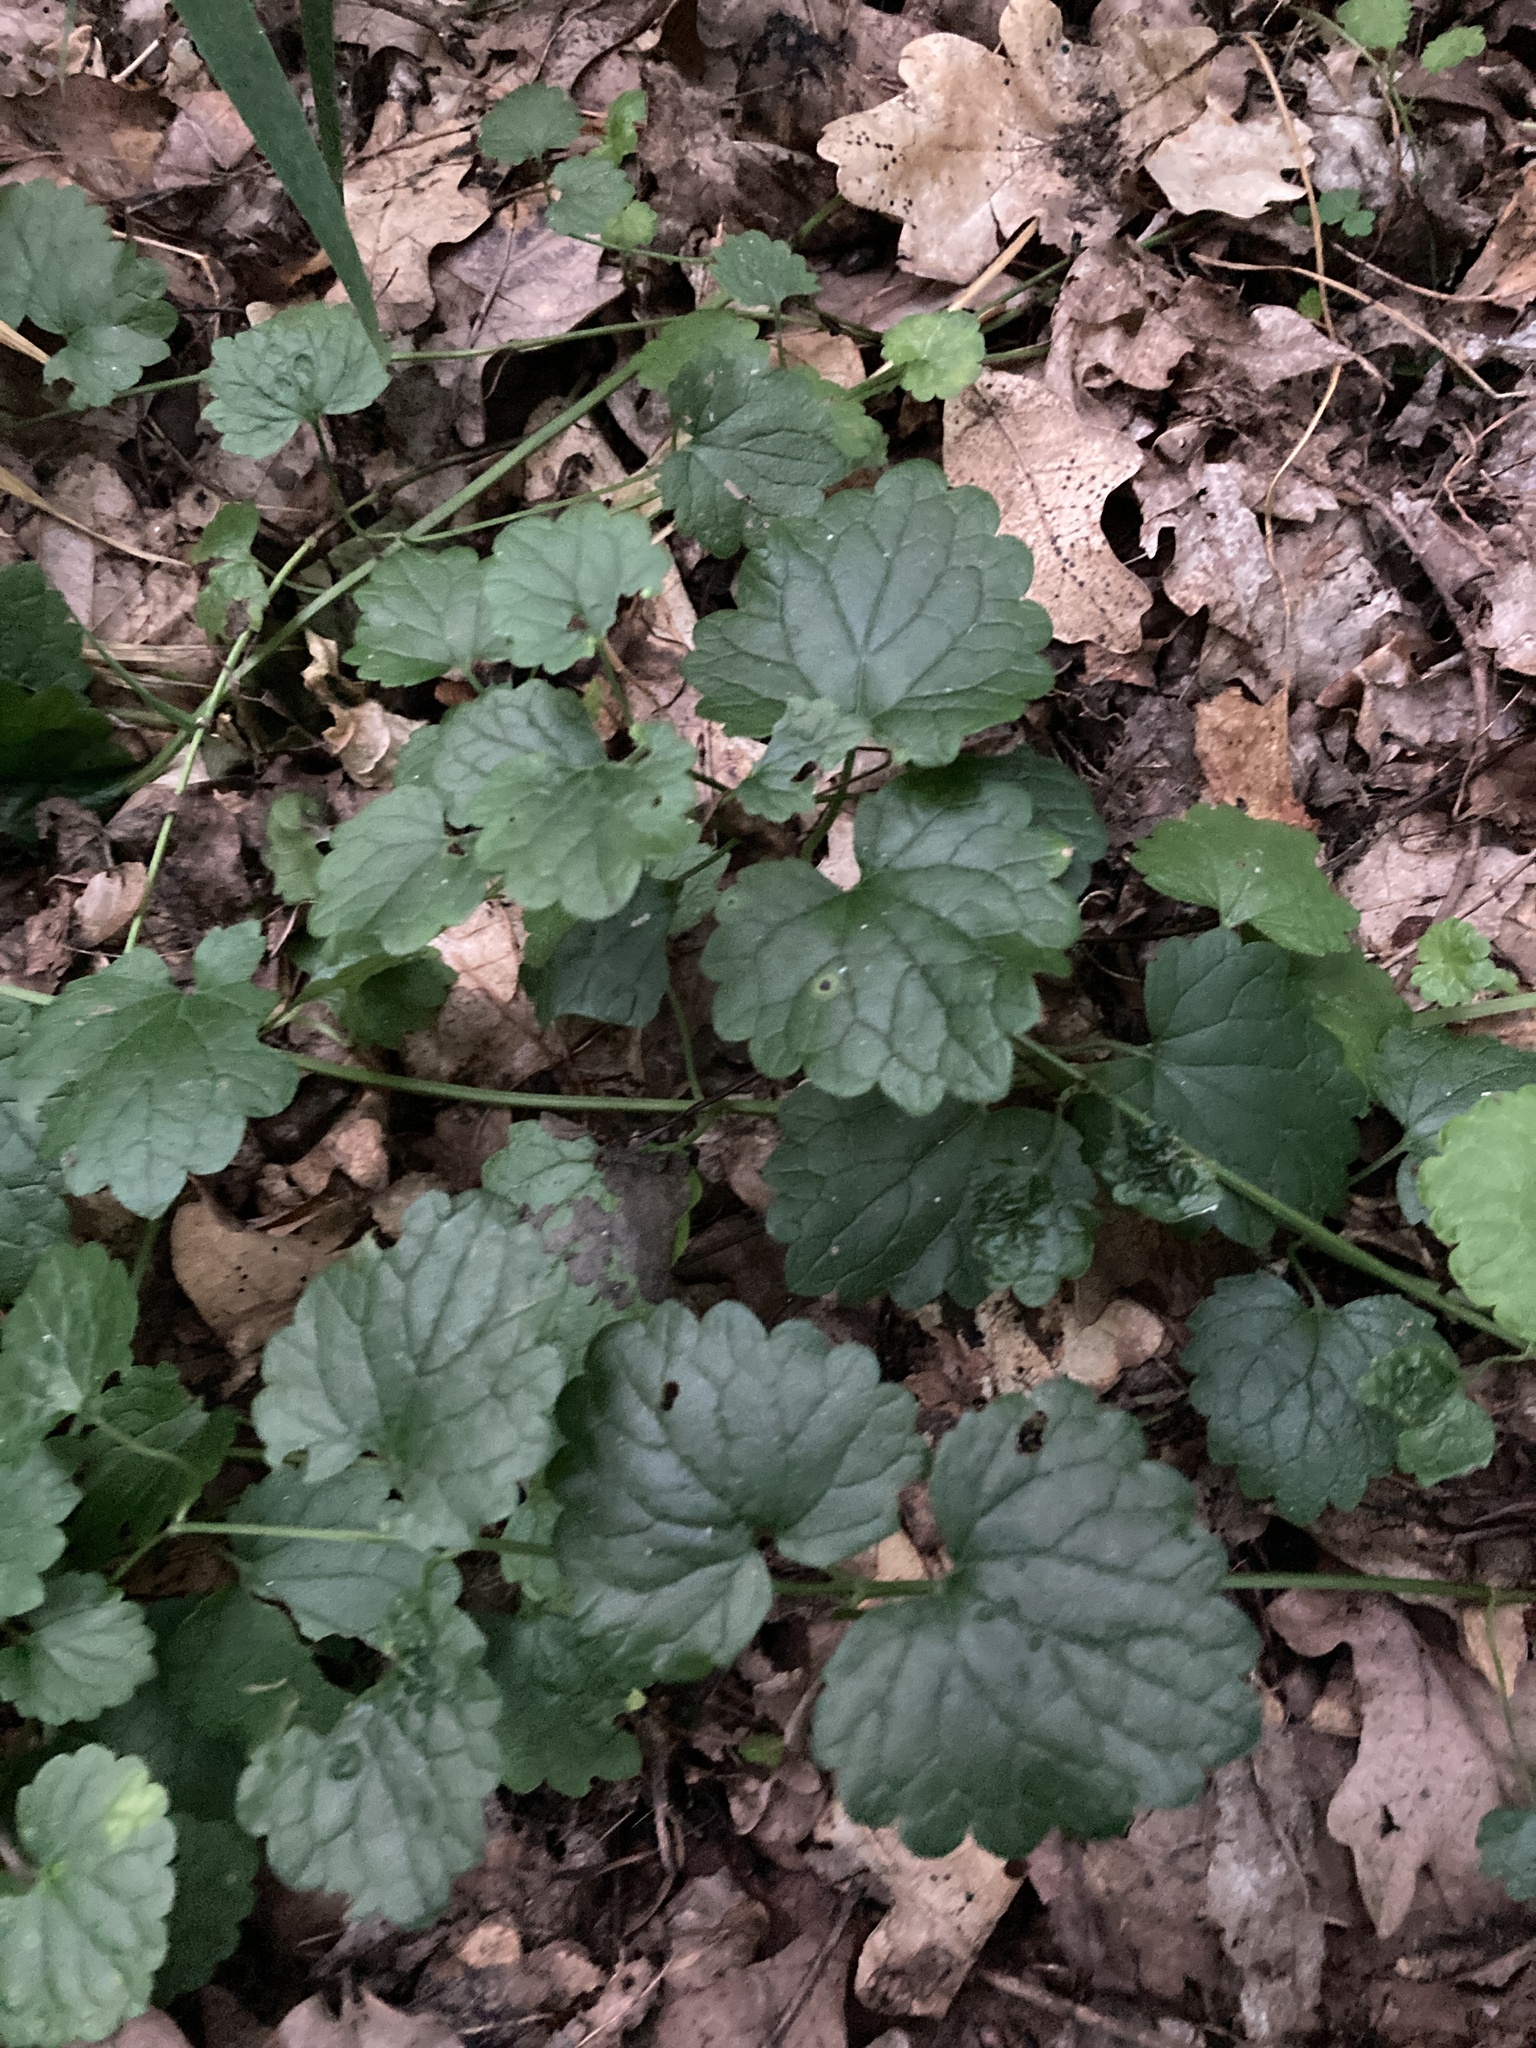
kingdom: Plantae
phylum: Tracheophyta
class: Magnoliopsida
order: Lamiales
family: Lamiaceae
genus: Glechoma
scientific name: Glechoma hederacea
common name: Ground ivy
